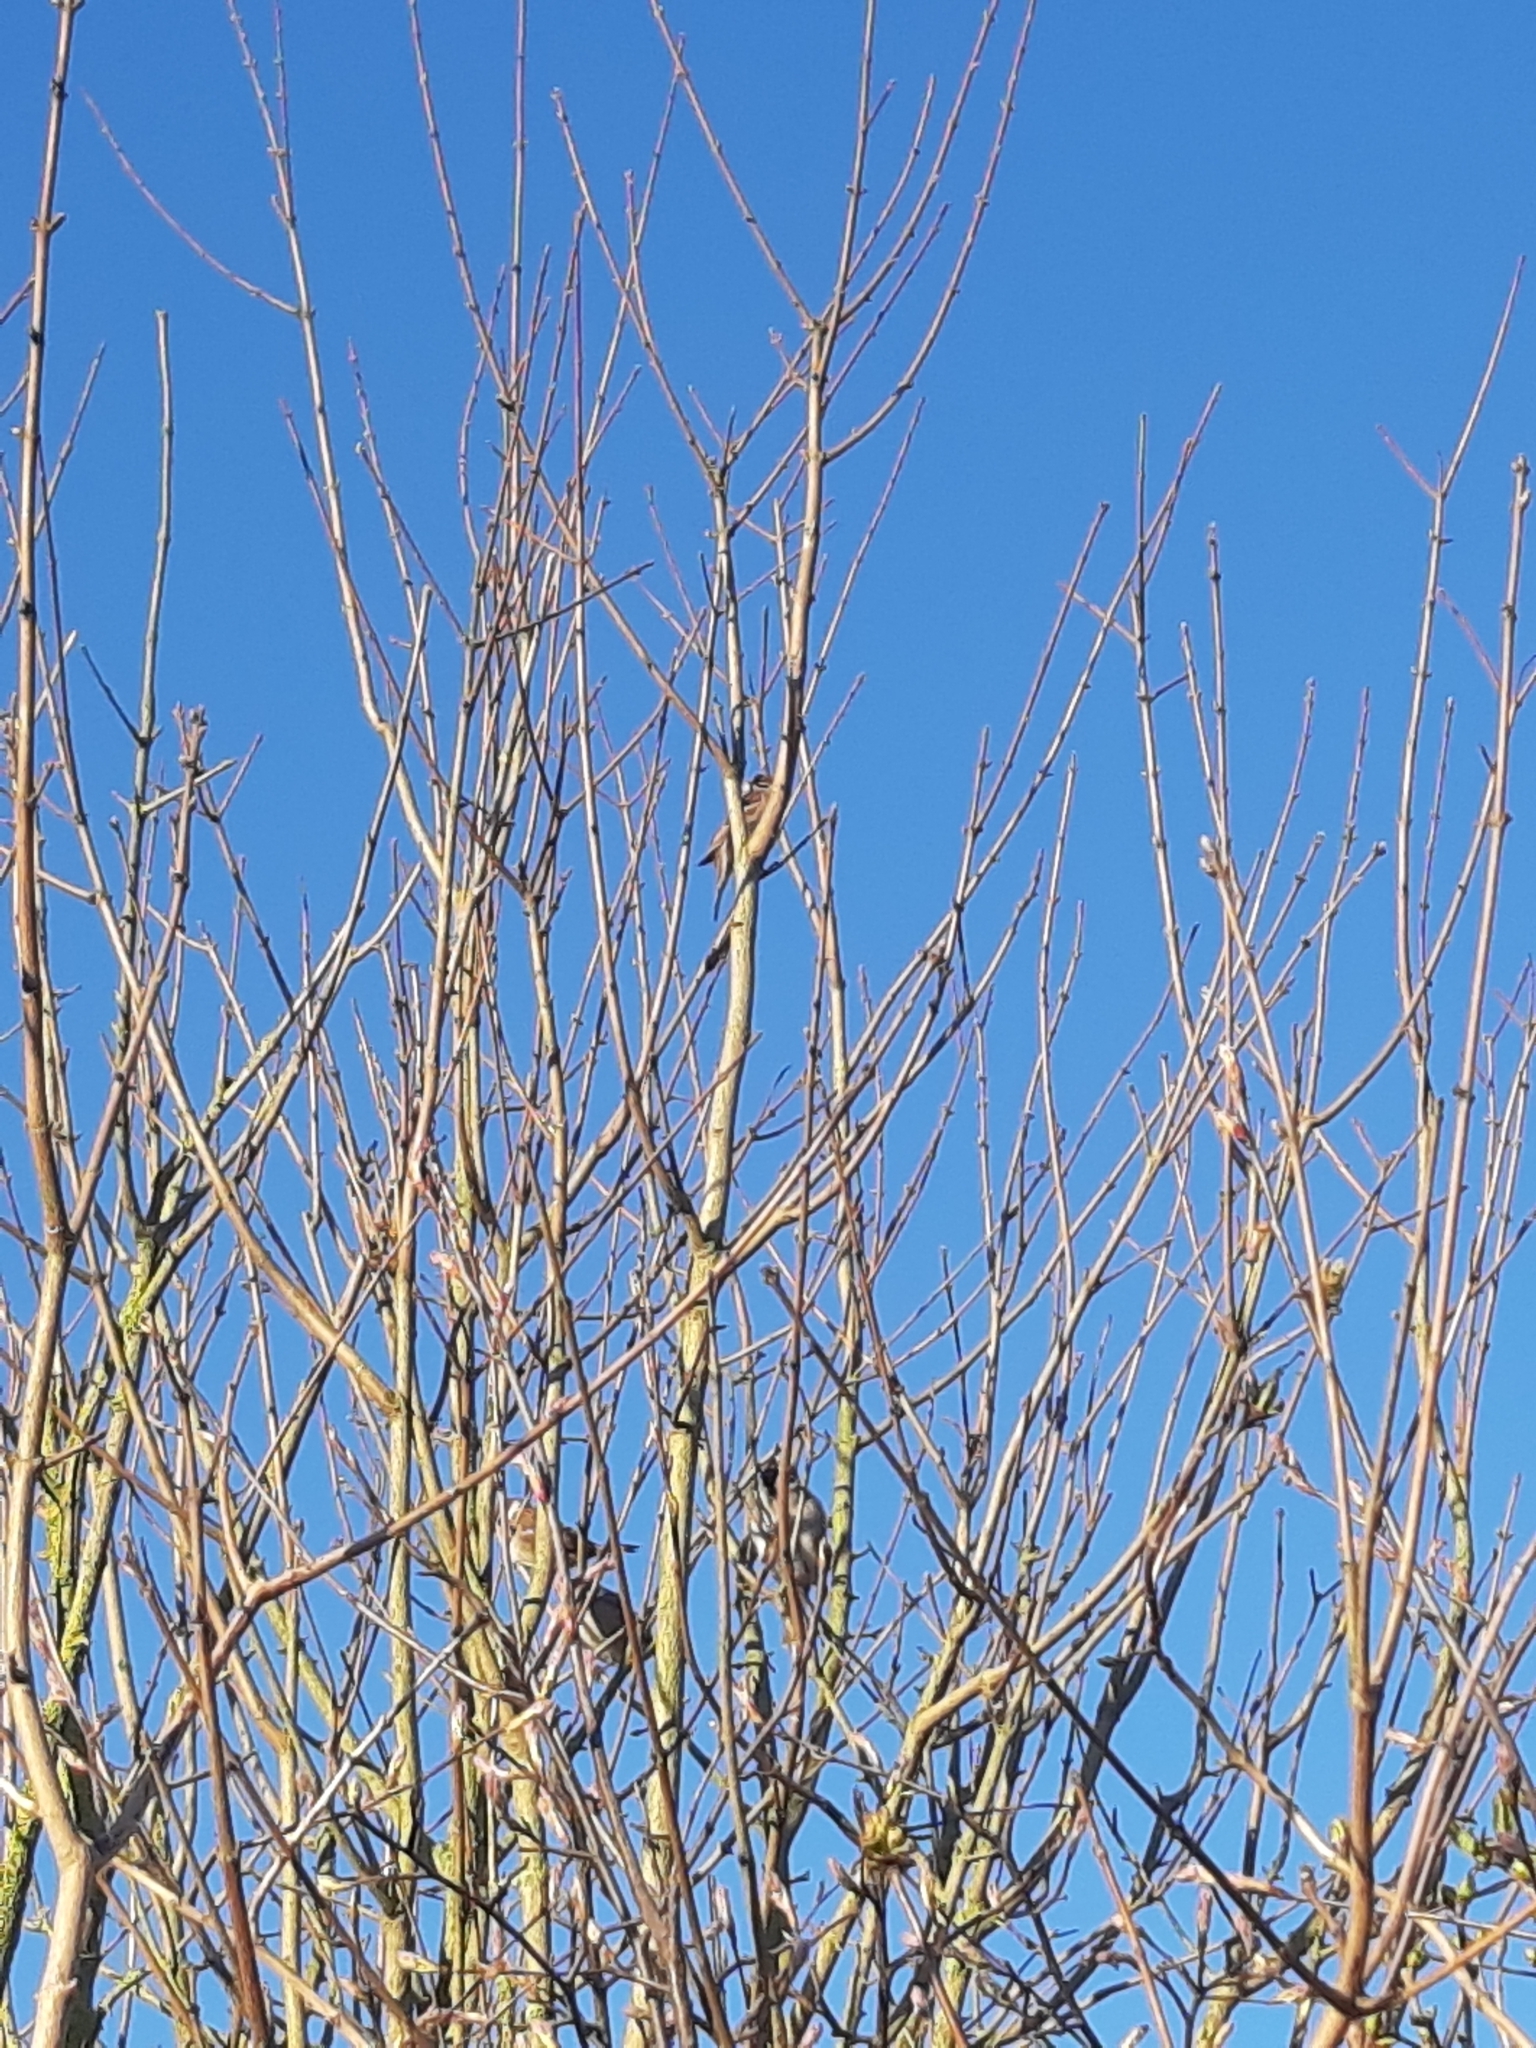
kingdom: Animalia
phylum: Chordata
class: Aves
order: Passeriformes
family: Passeridae
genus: Passer
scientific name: Passer montanus
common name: Eurasian tree sparrow
